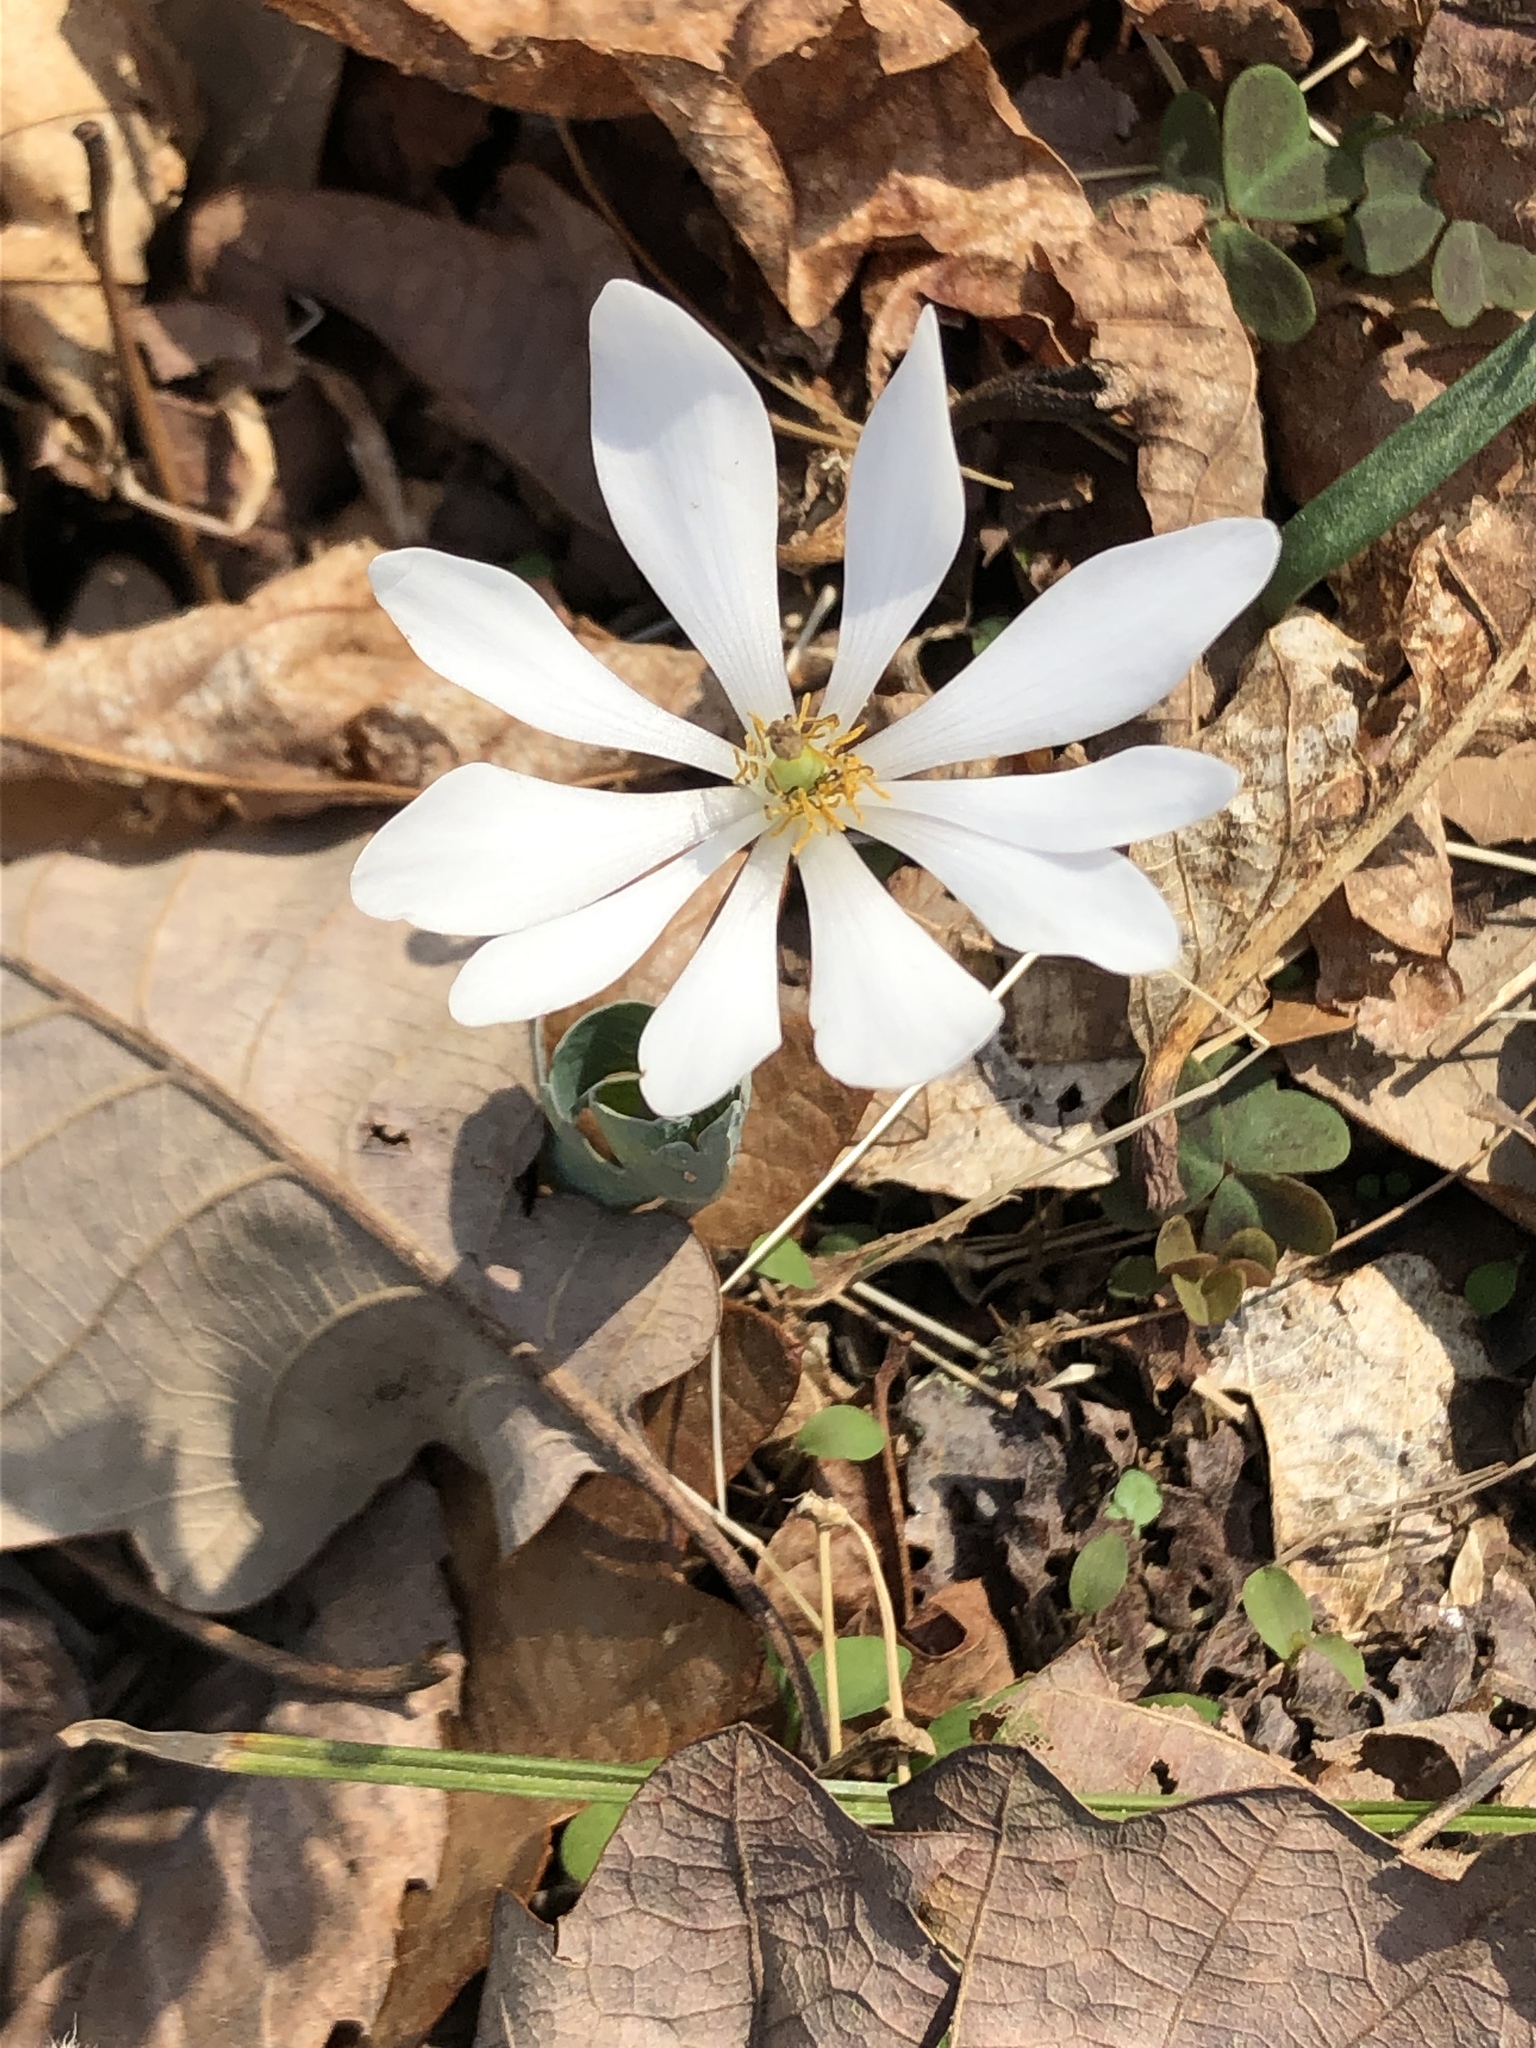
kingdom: Plantae
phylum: Tracheophyta
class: Magnoliopsida
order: Ranunculales
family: Papaveraceae
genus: Sanguinaria
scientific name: Sanguinaria canadensis
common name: Bloodroot
